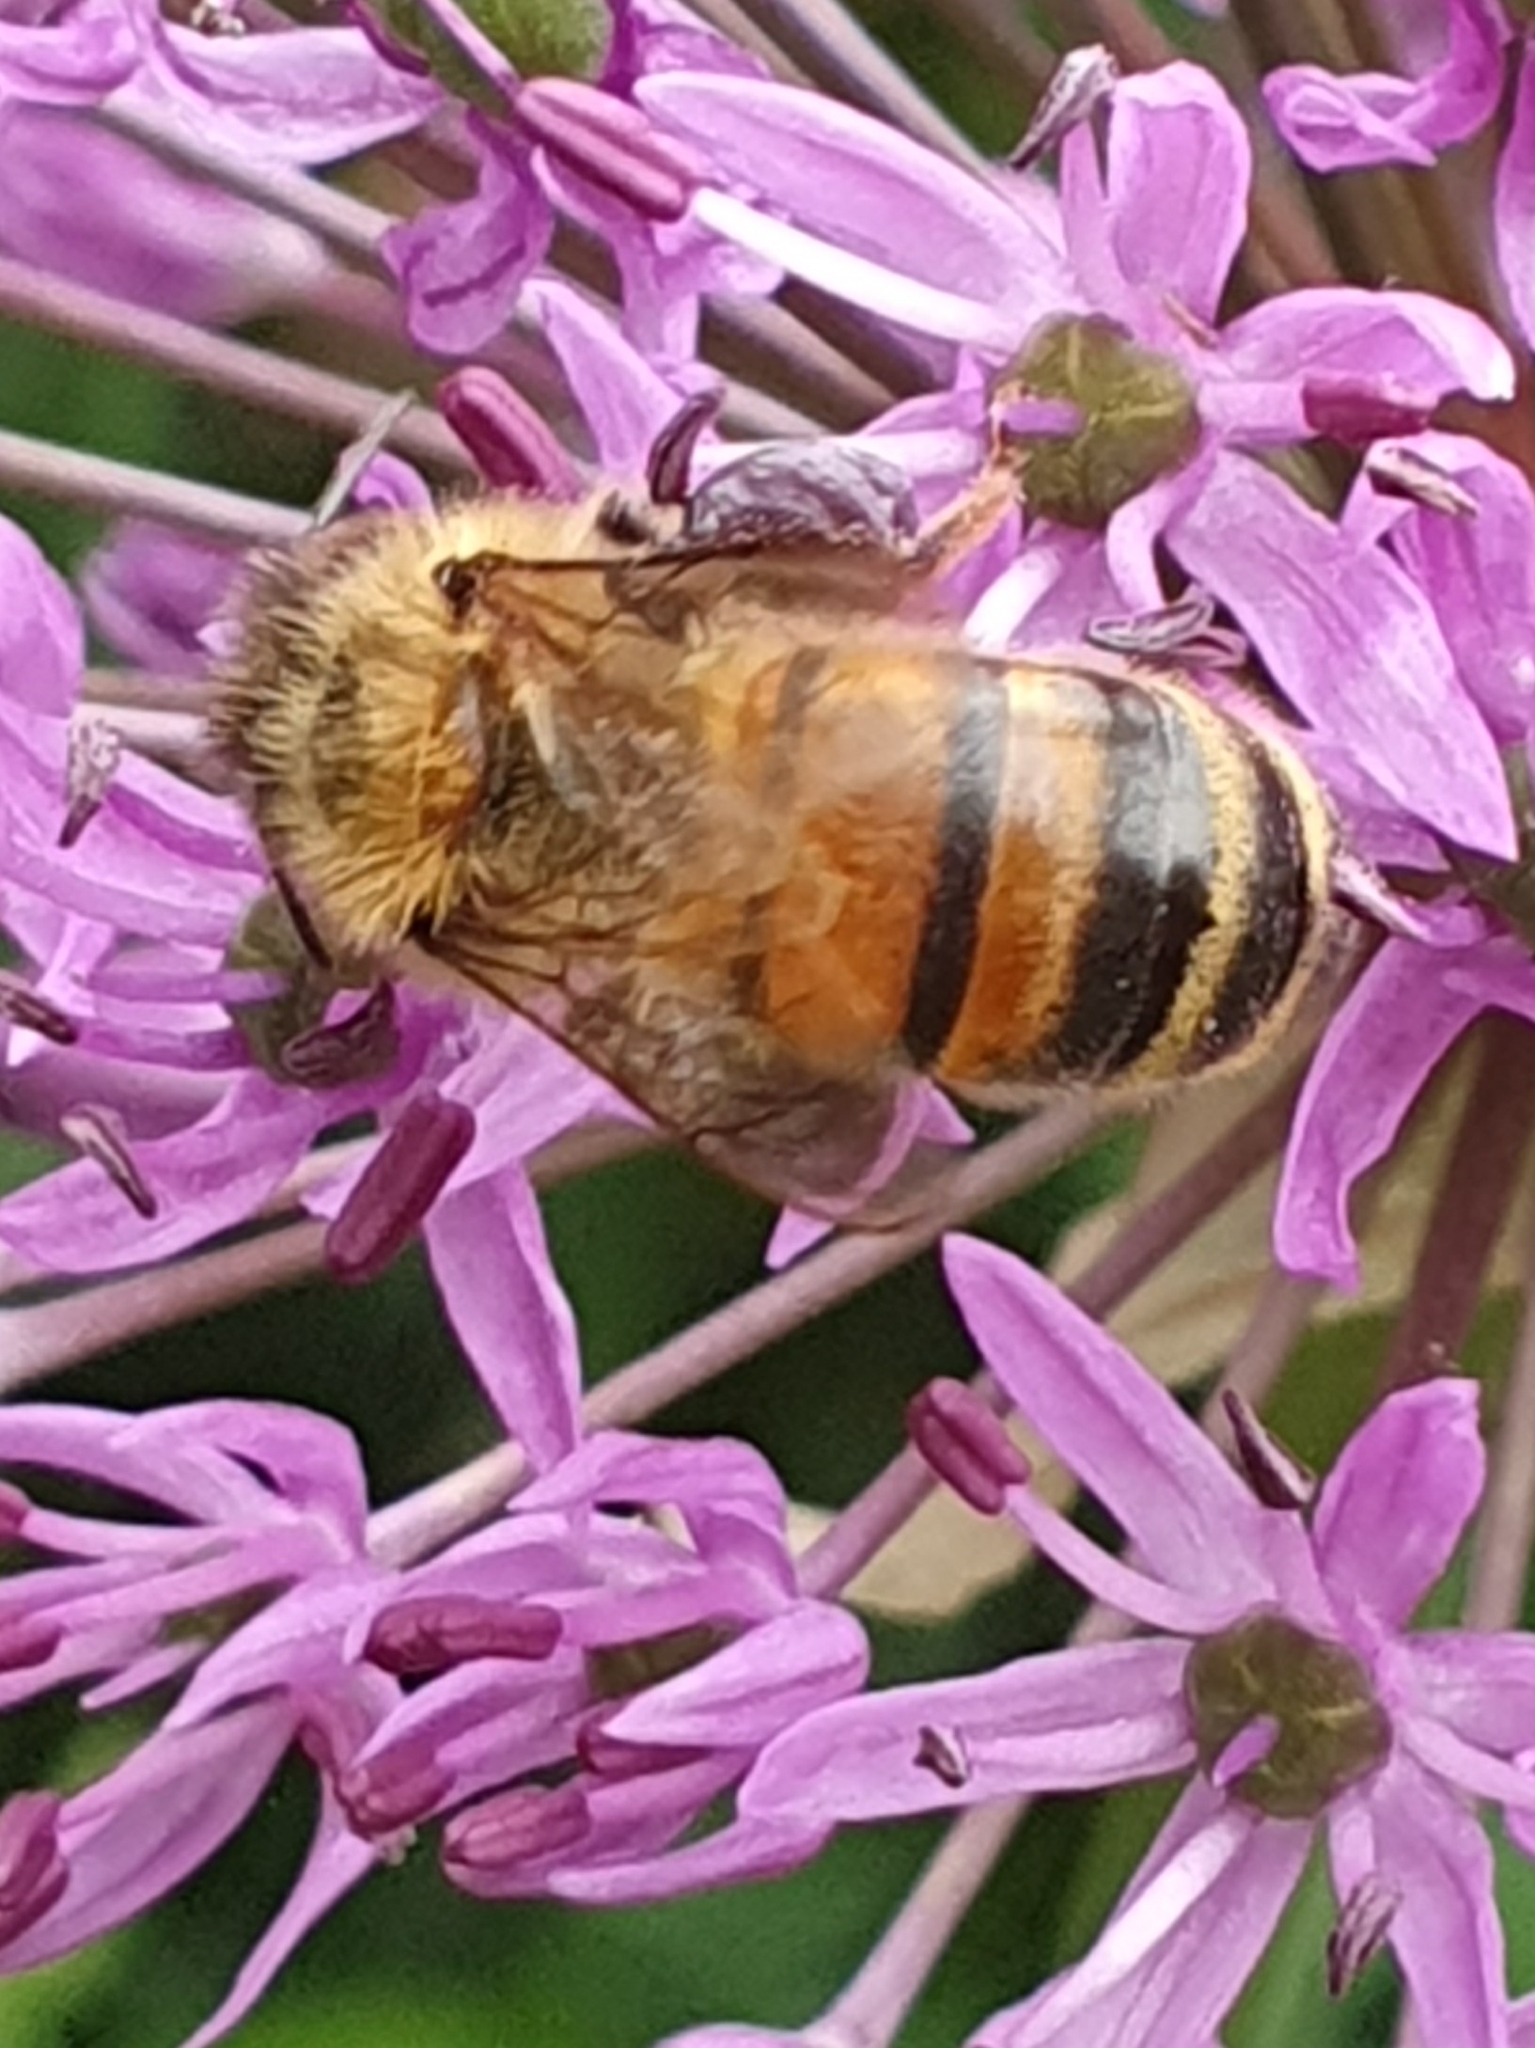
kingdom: Animalia
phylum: Arthropoda
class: Insecta
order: Hymenoptera
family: Apidae
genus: Apis
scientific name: Apis mellifera
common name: Honey bee
